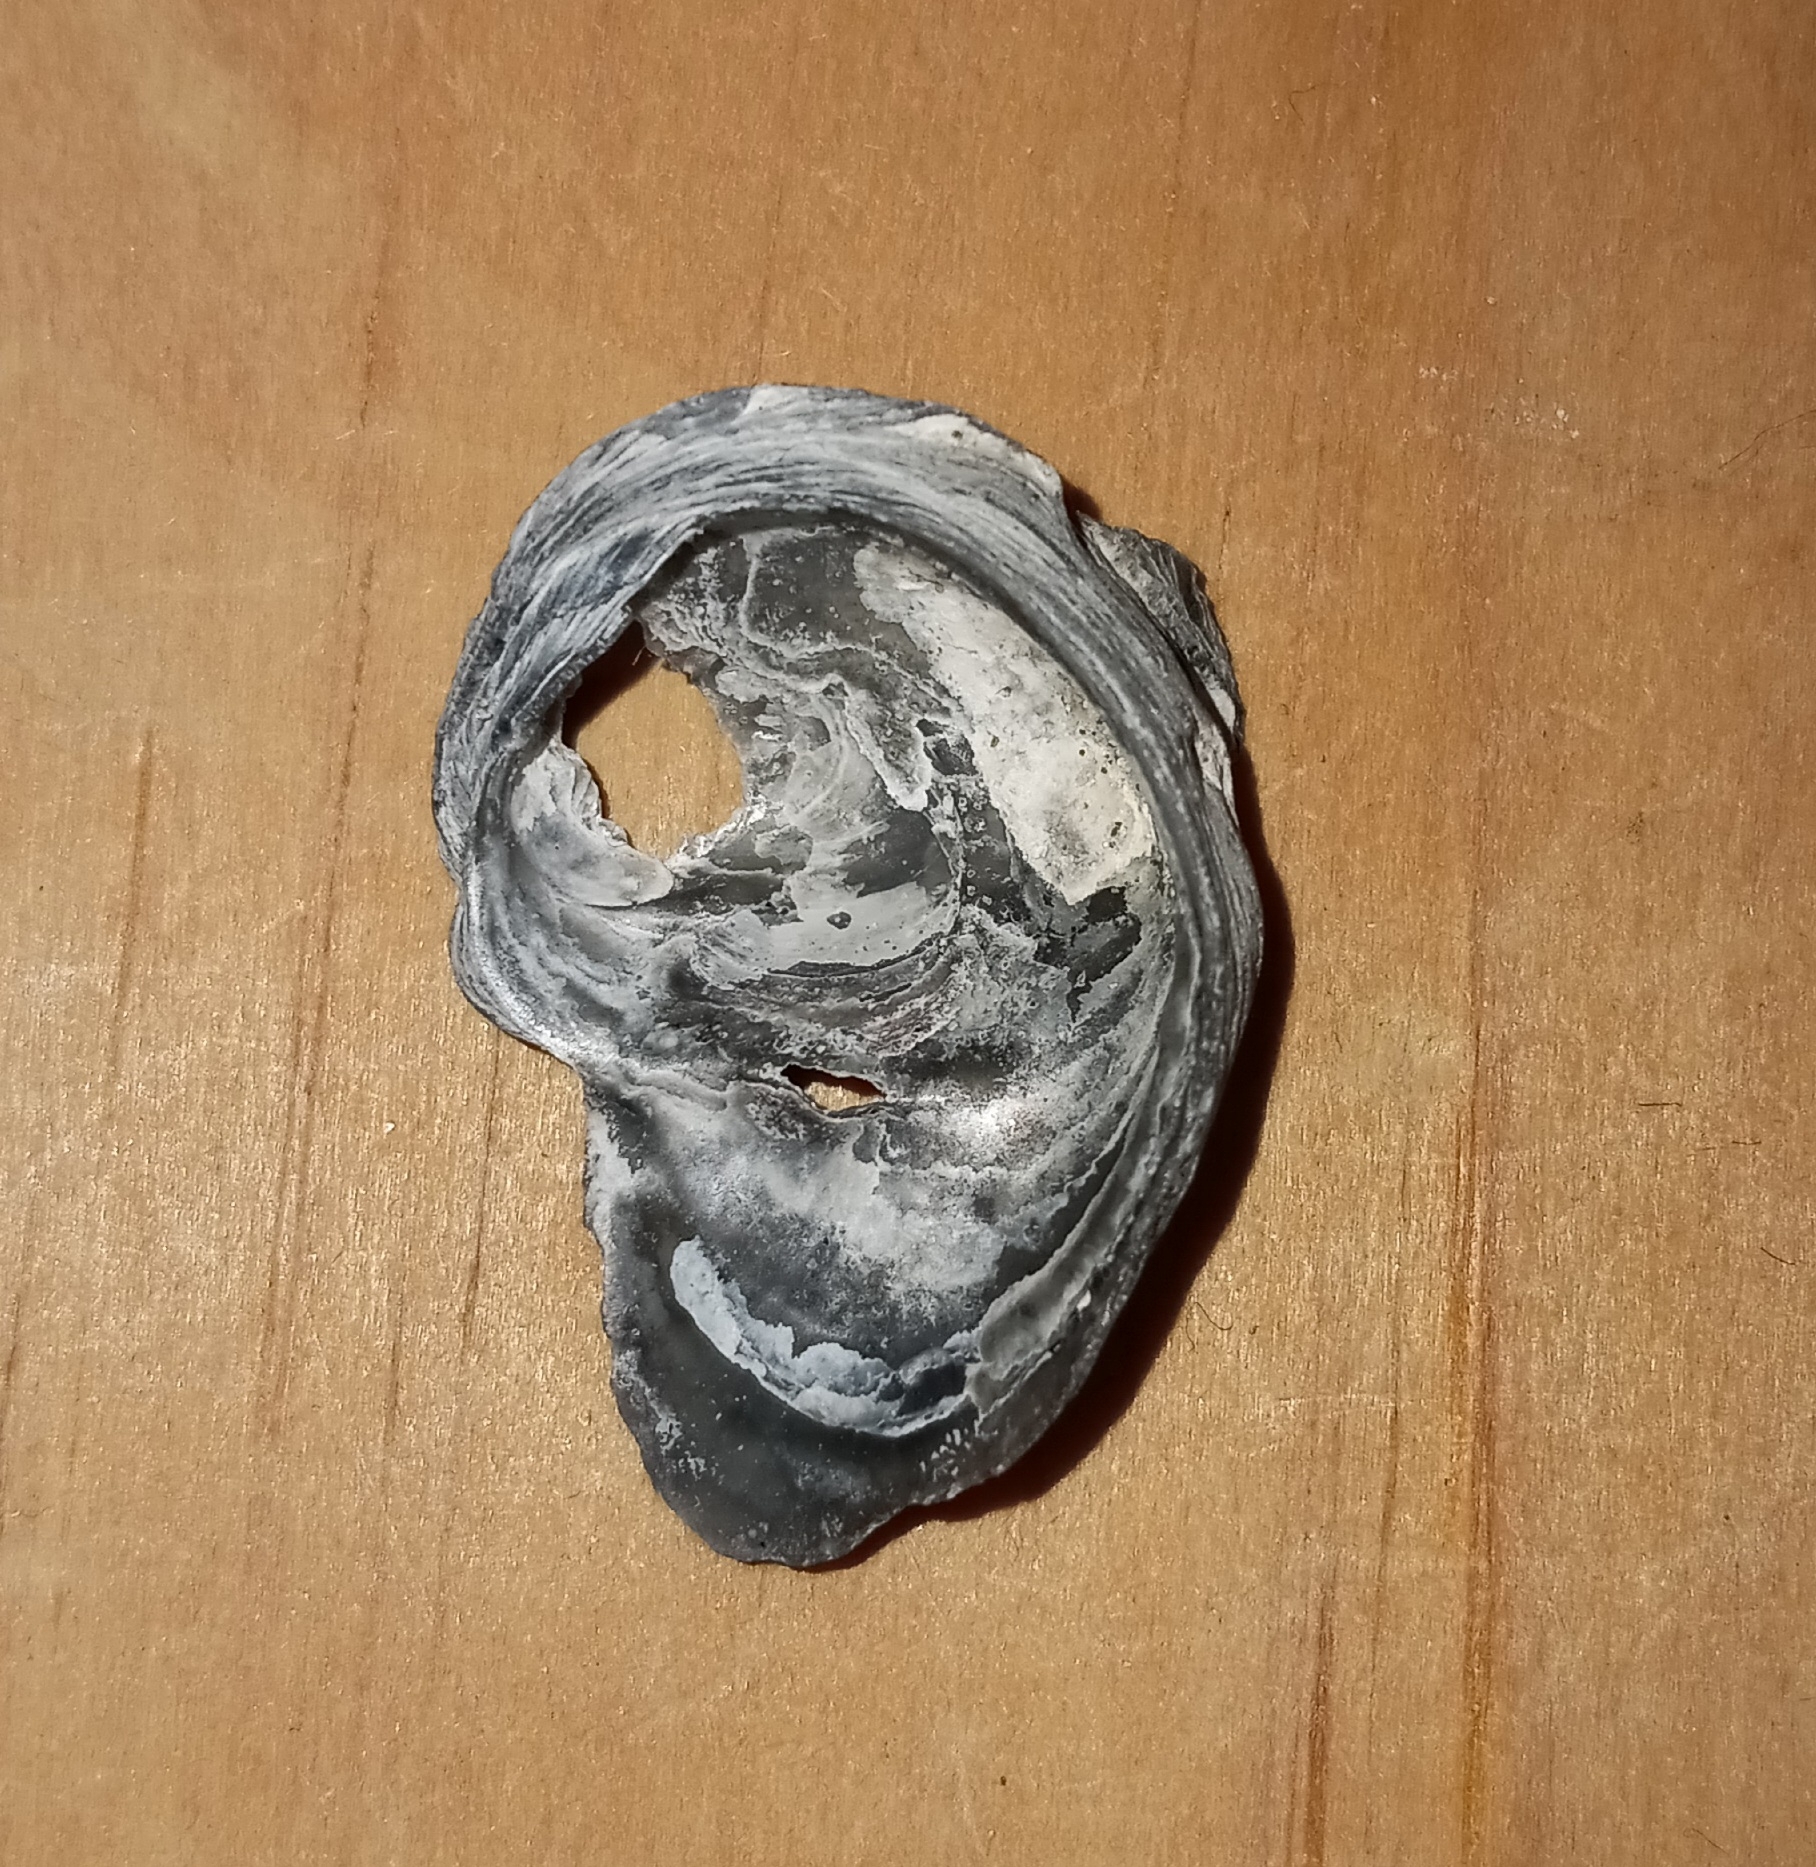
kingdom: Animalia
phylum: Mollusca
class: Bivalvia
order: Ostreida
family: Ostreidae
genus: Crassostrea
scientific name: Crassostrea virginica
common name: American oyster
